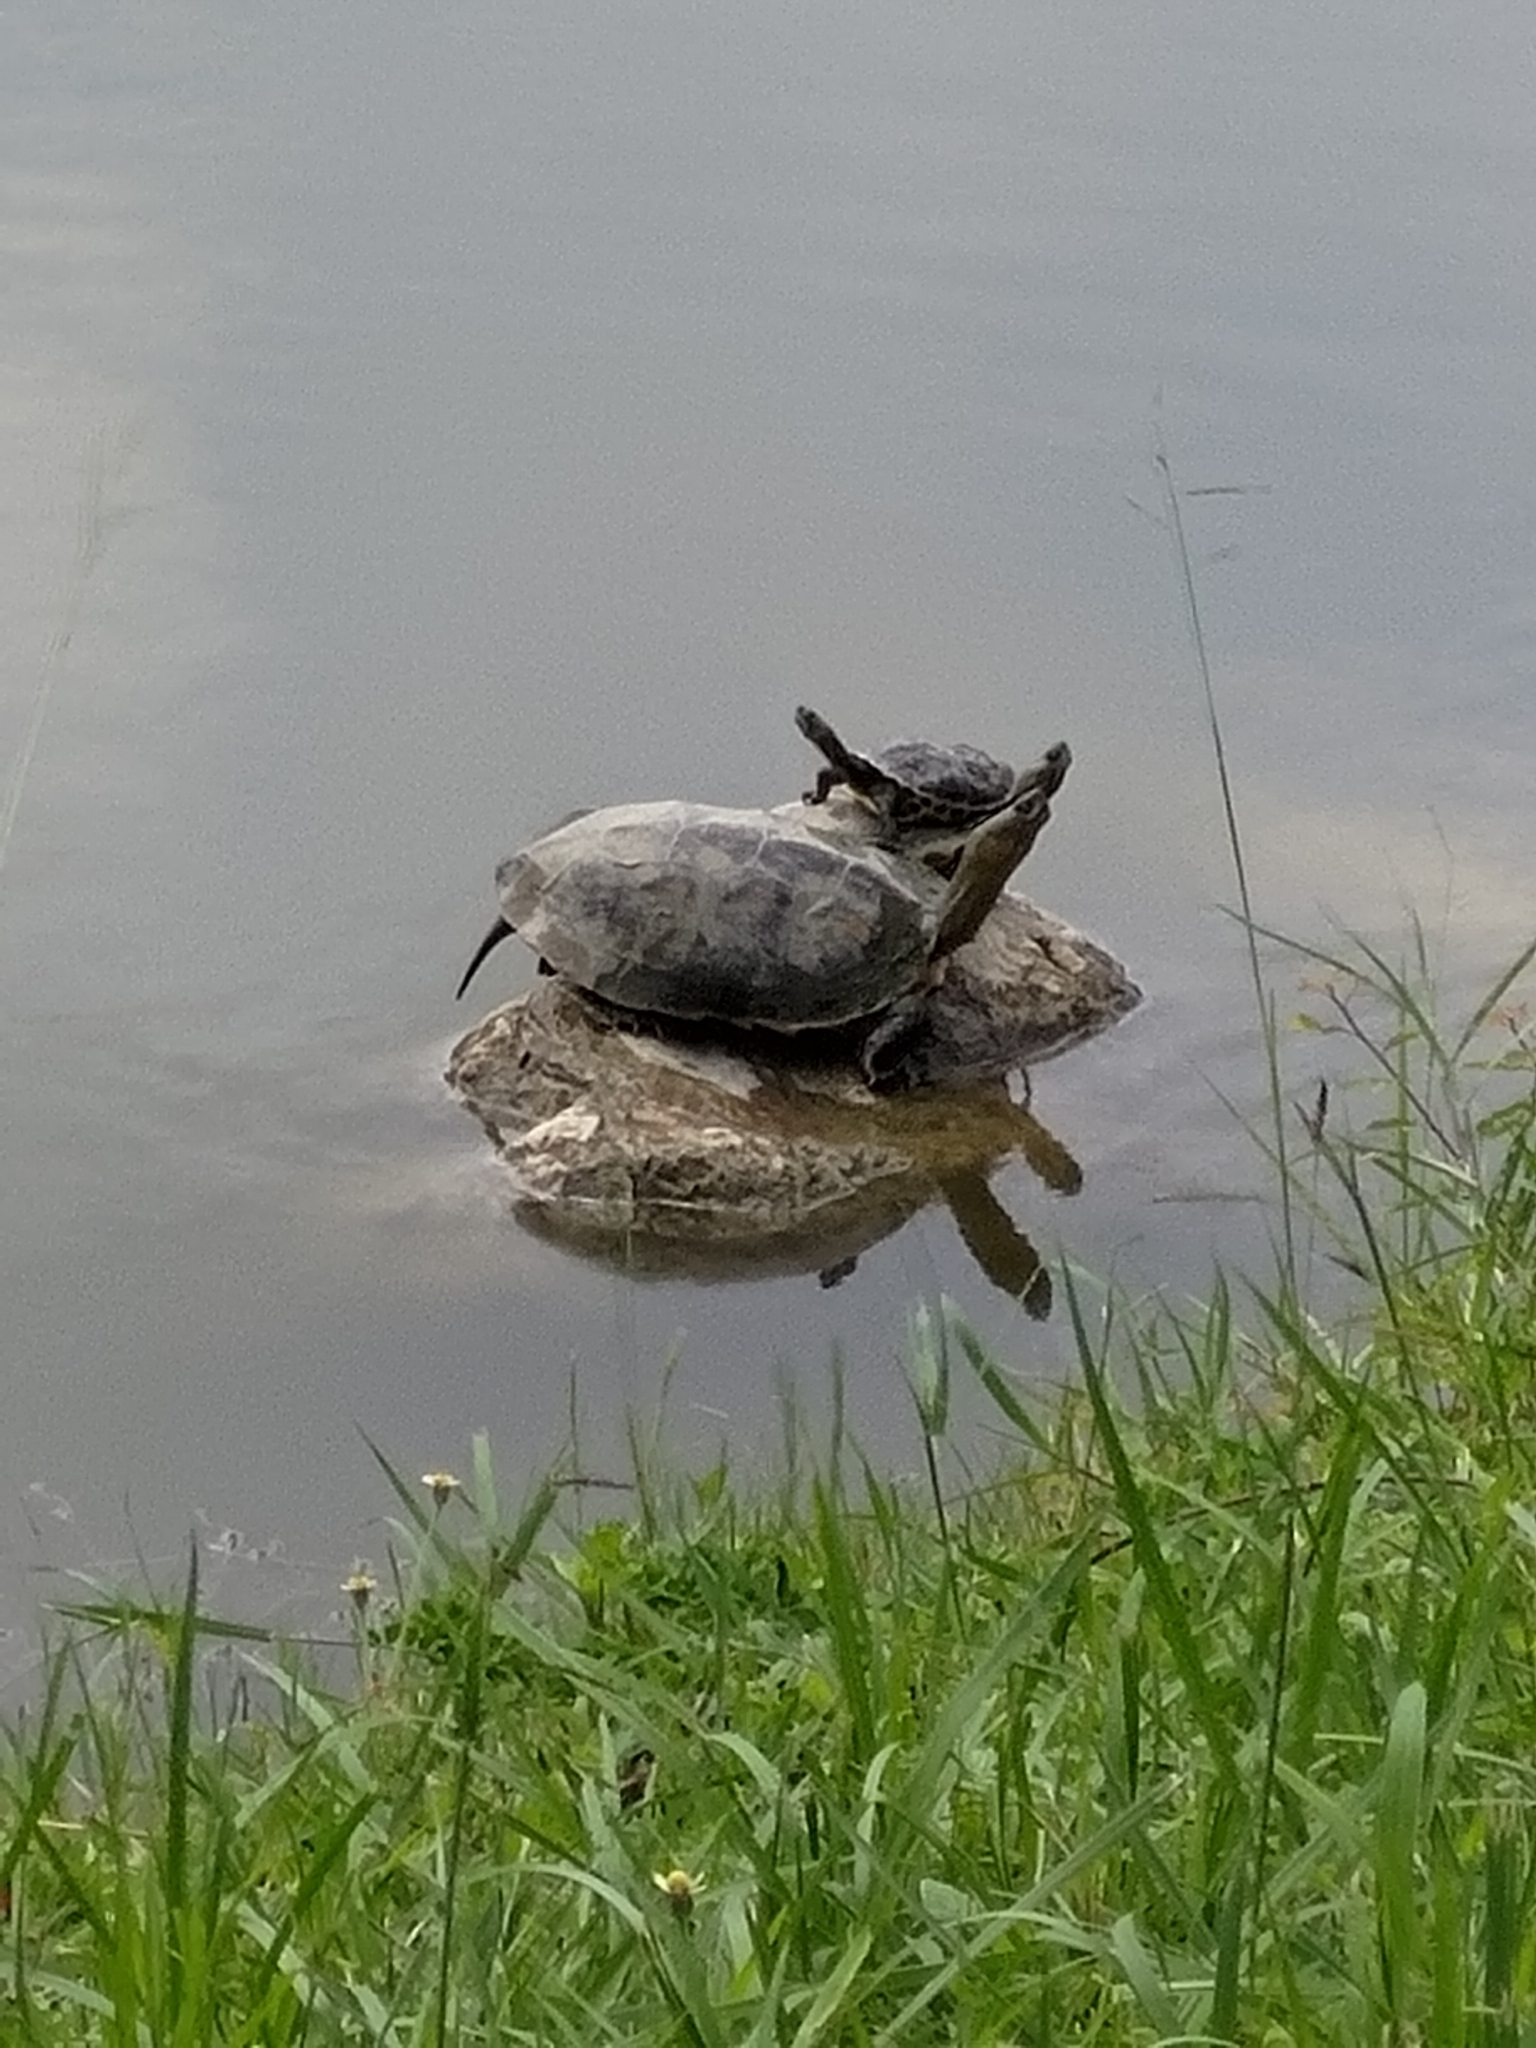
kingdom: Animalia
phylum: Chordata
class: Testudines
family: Geoemydidae
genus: Mauremys
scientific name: Mauremys sinensis
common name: Chinese stripe-necked turtle
